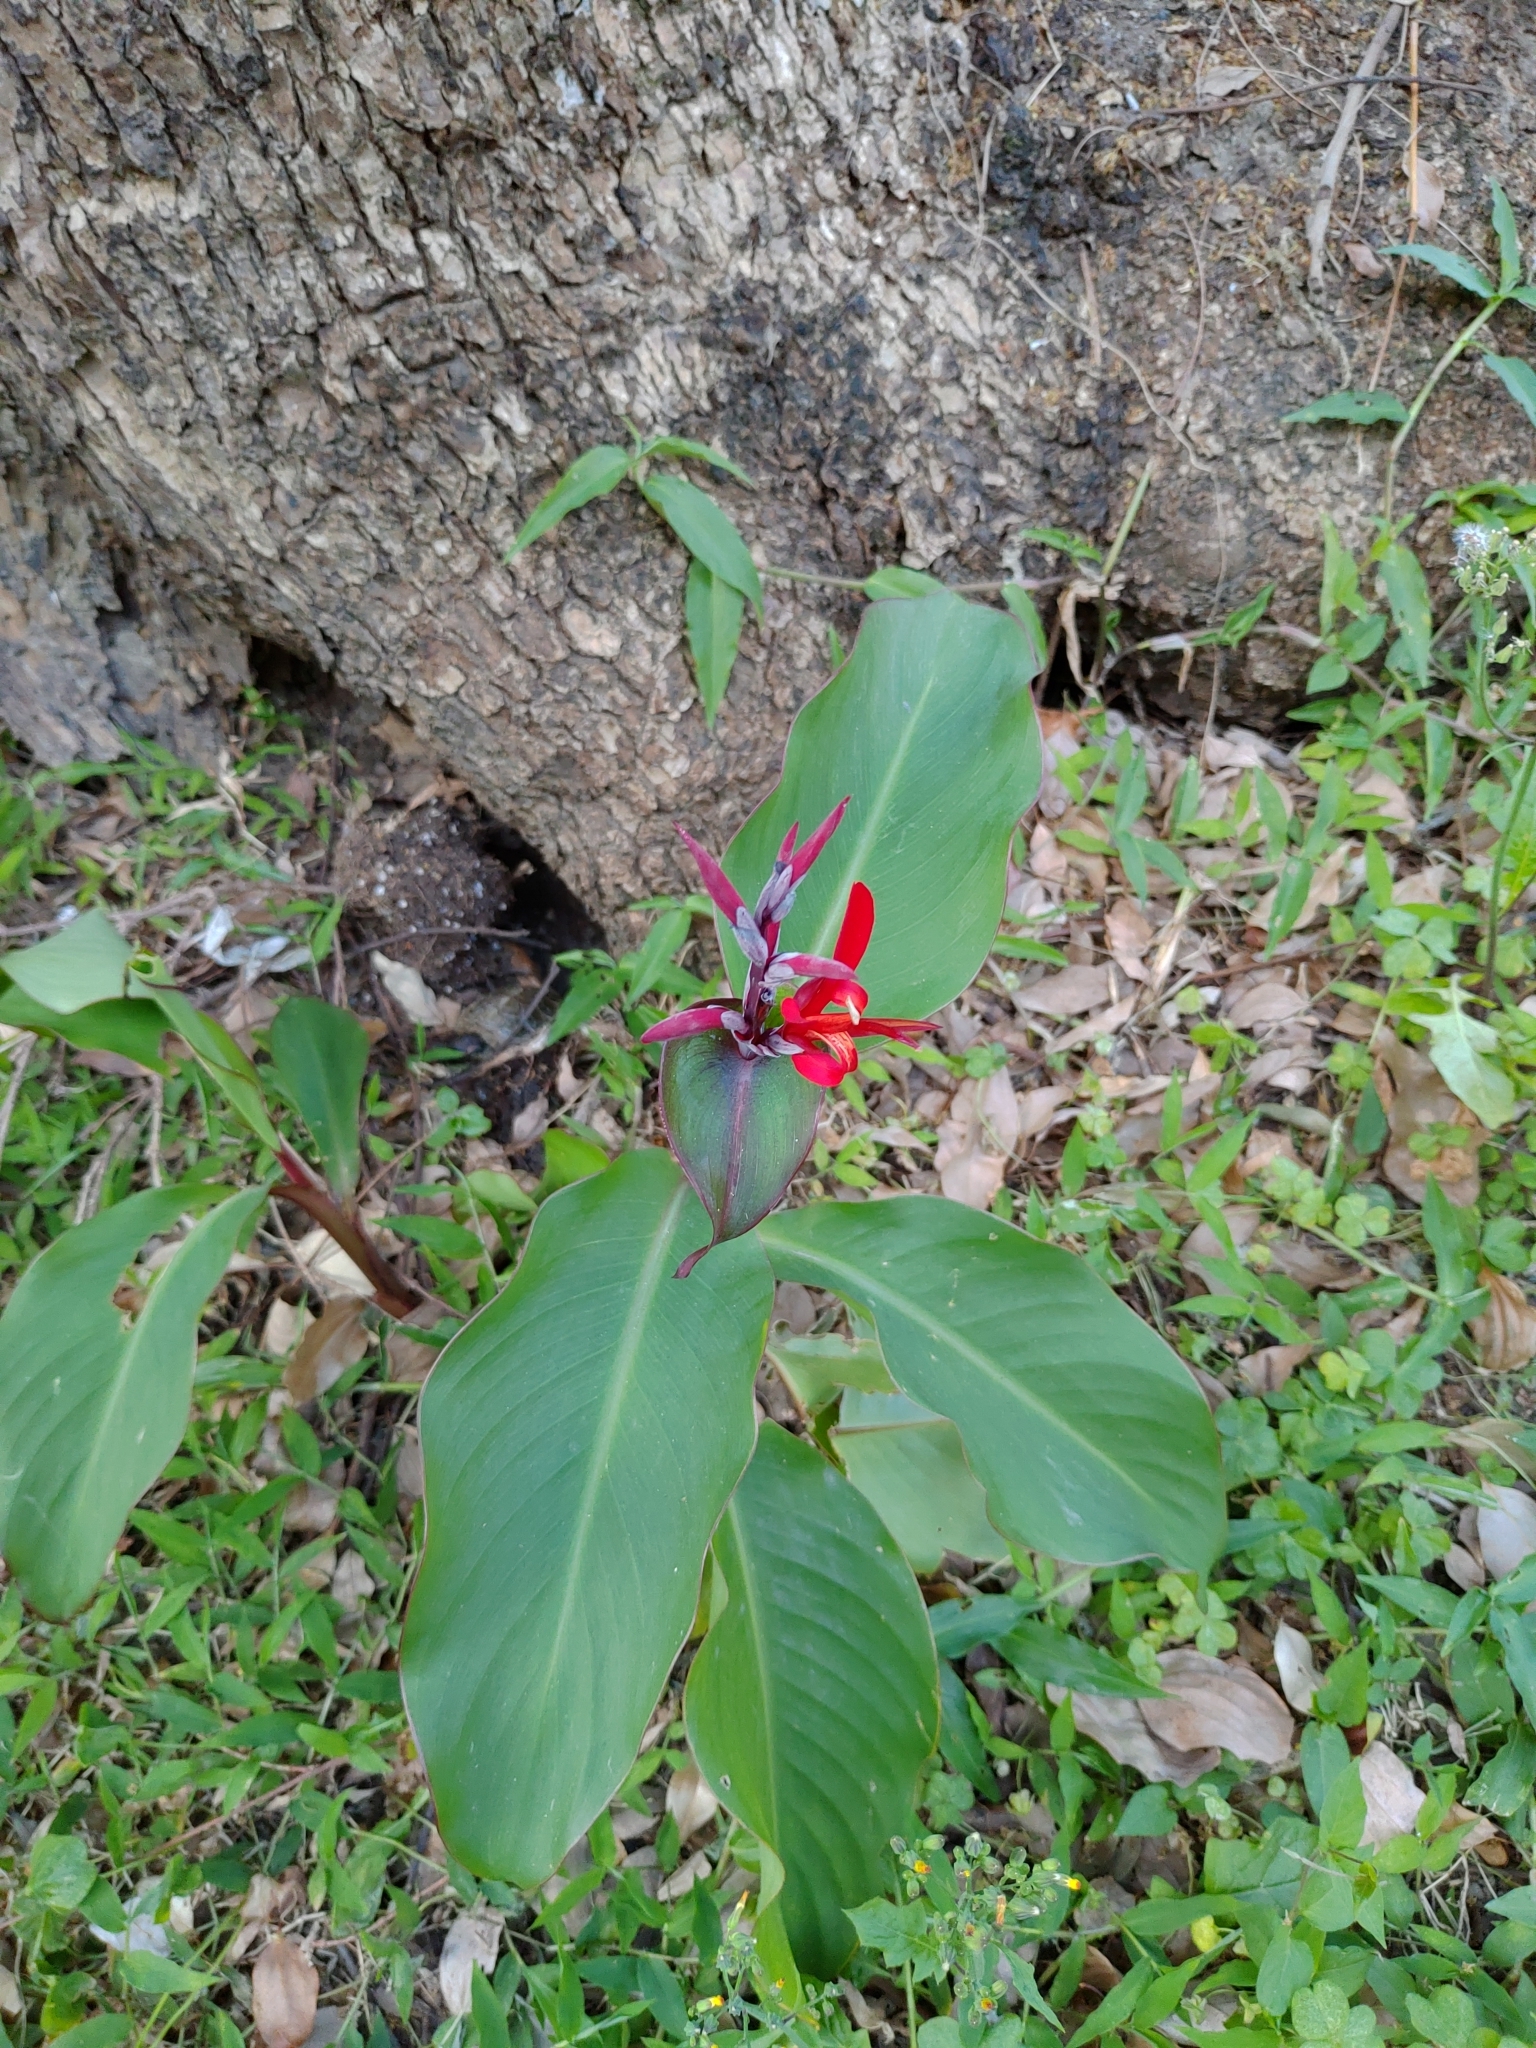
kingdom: Plantae
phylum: Tracheophyta
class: Liliopsida
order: Zingiberales
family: Cannaceae
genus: Canna
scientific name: Canna indica
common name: Indian shot
